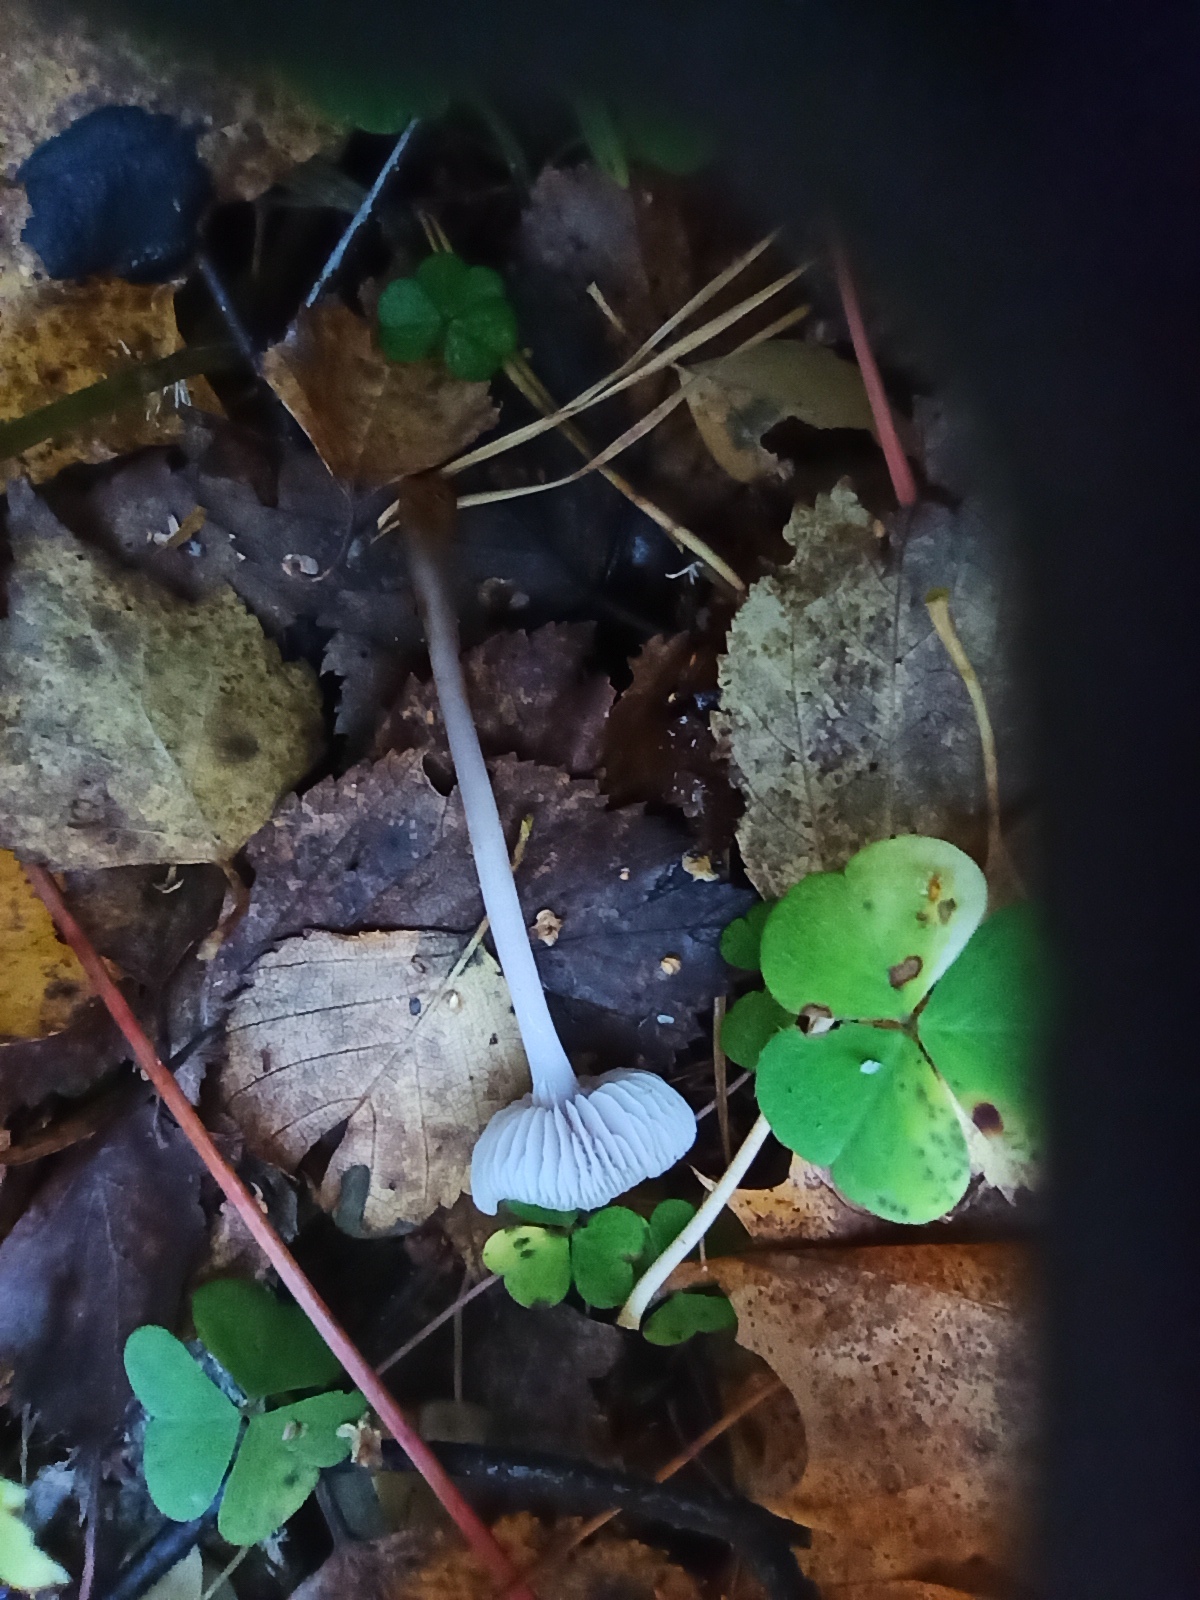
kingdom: Fungi
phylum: Basidiomycota
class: Agaricomycetes
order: Agaricales
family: Mycenaceae
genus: Mycena
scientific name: Mycena pura
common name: Lilac bonnet
